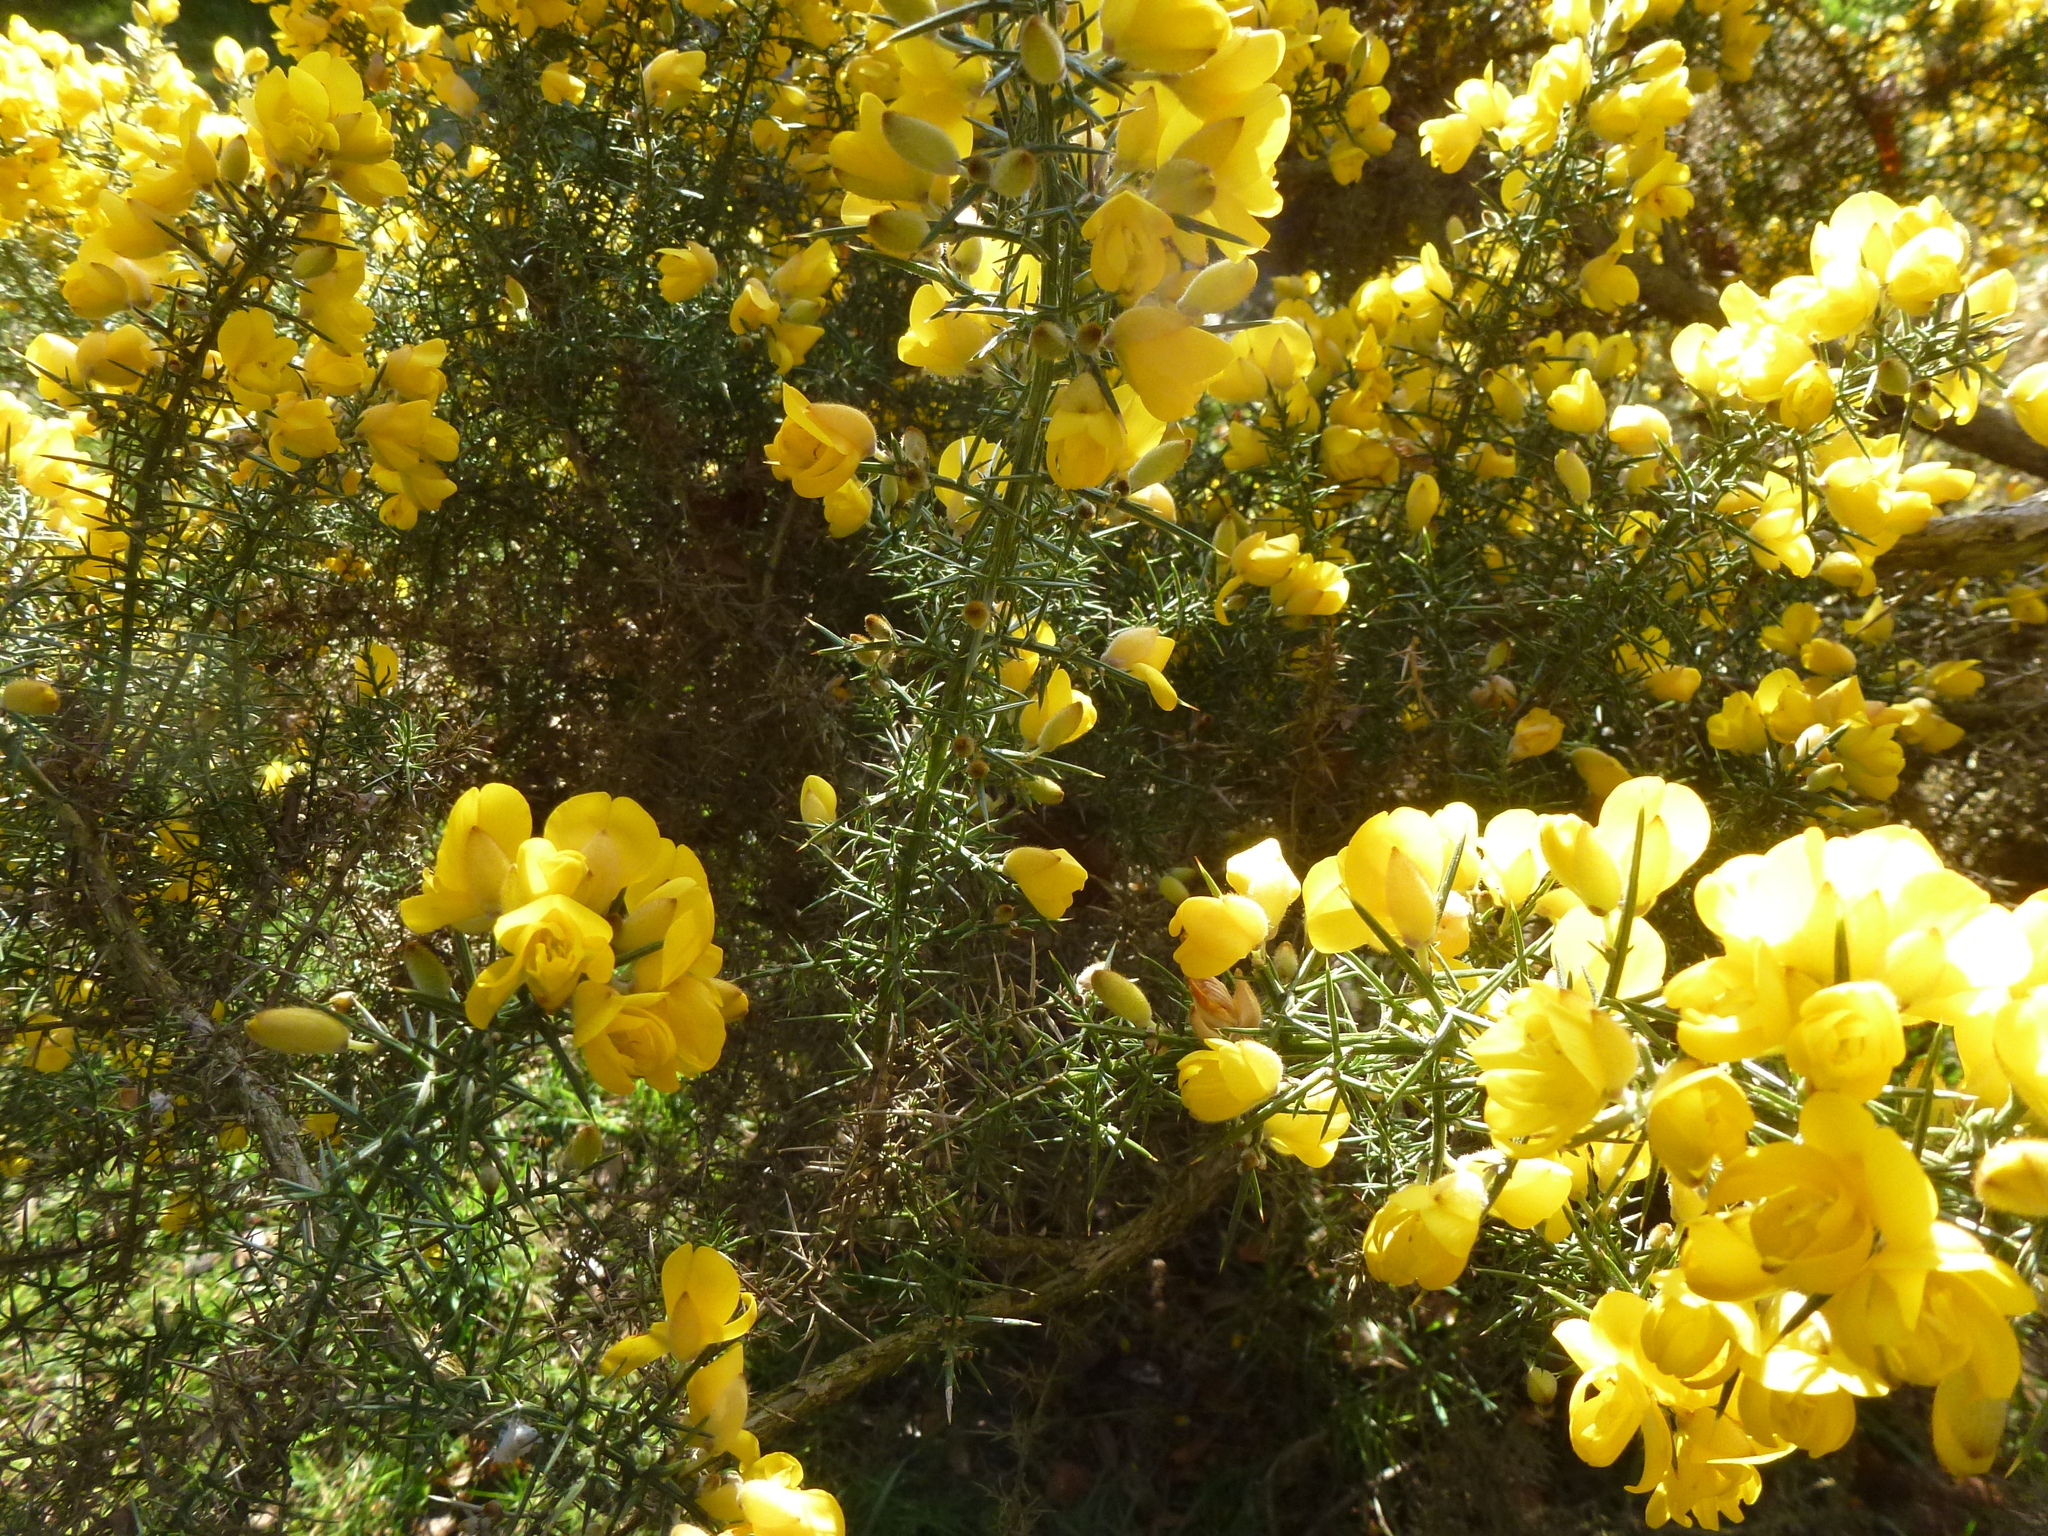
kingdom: Plantae
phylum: Tracheophyta
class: Magnoliopsida
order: Fabales
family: Fabaceae
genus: Ulex
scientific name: Ulex europaeus
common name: Common gorse
